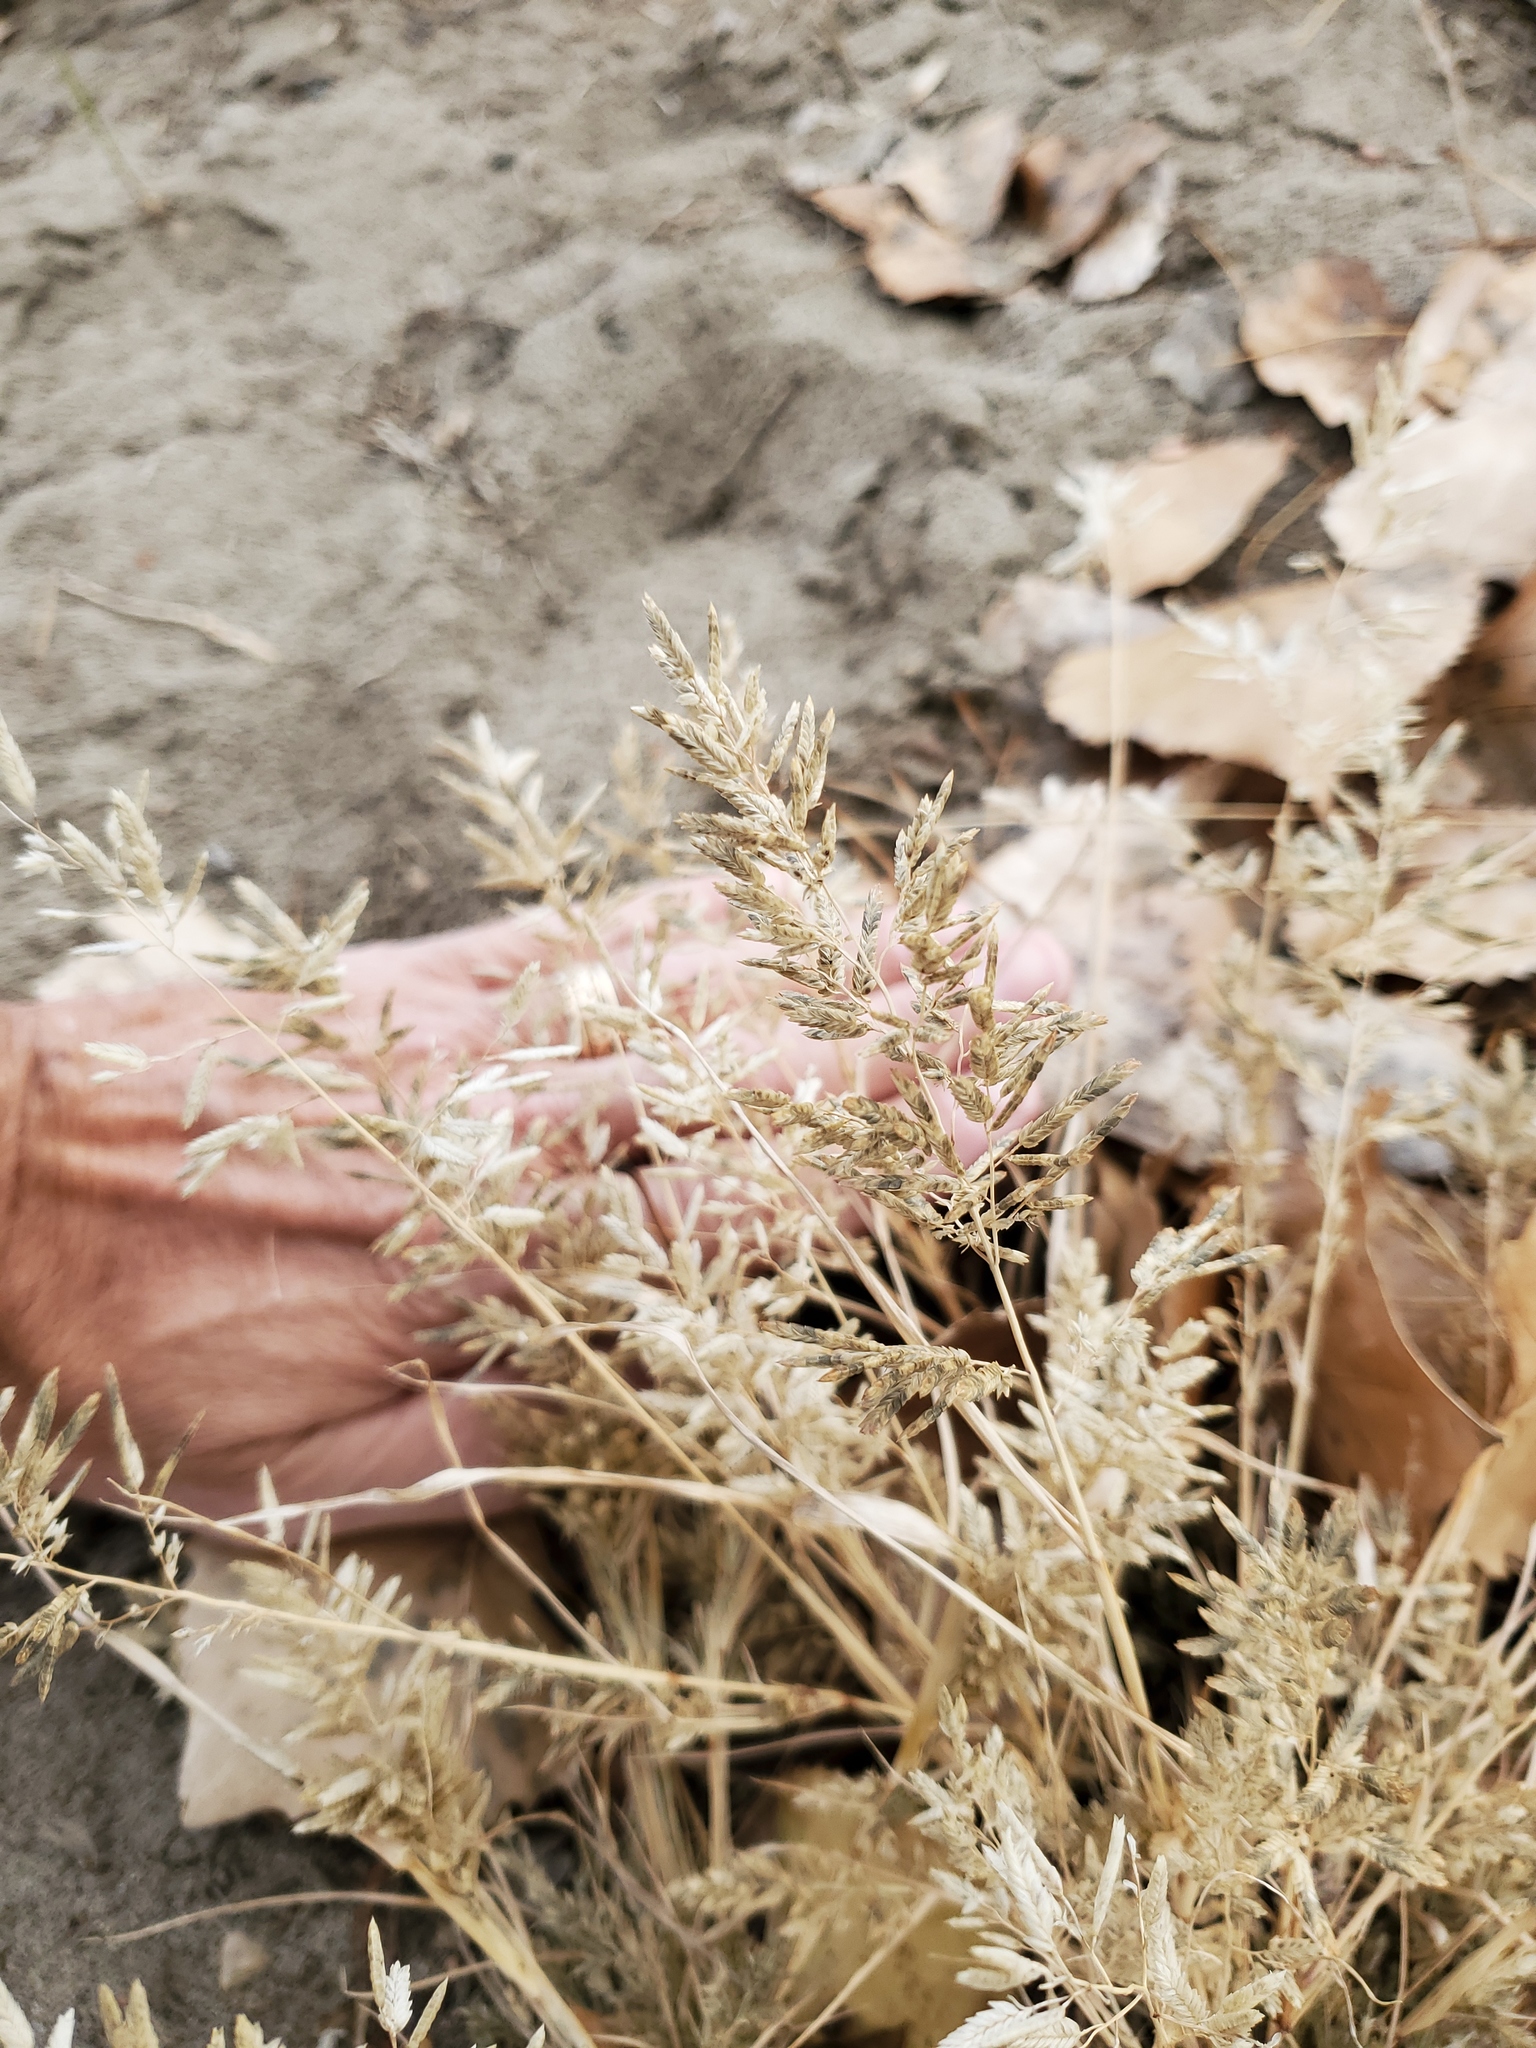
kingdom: Plantae
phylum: Tracheophyta
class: Liliopsida
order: Poales
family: Poaceae
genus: Eragrostis
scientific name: Eragrostis cilianensis
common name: Stinkgrass
